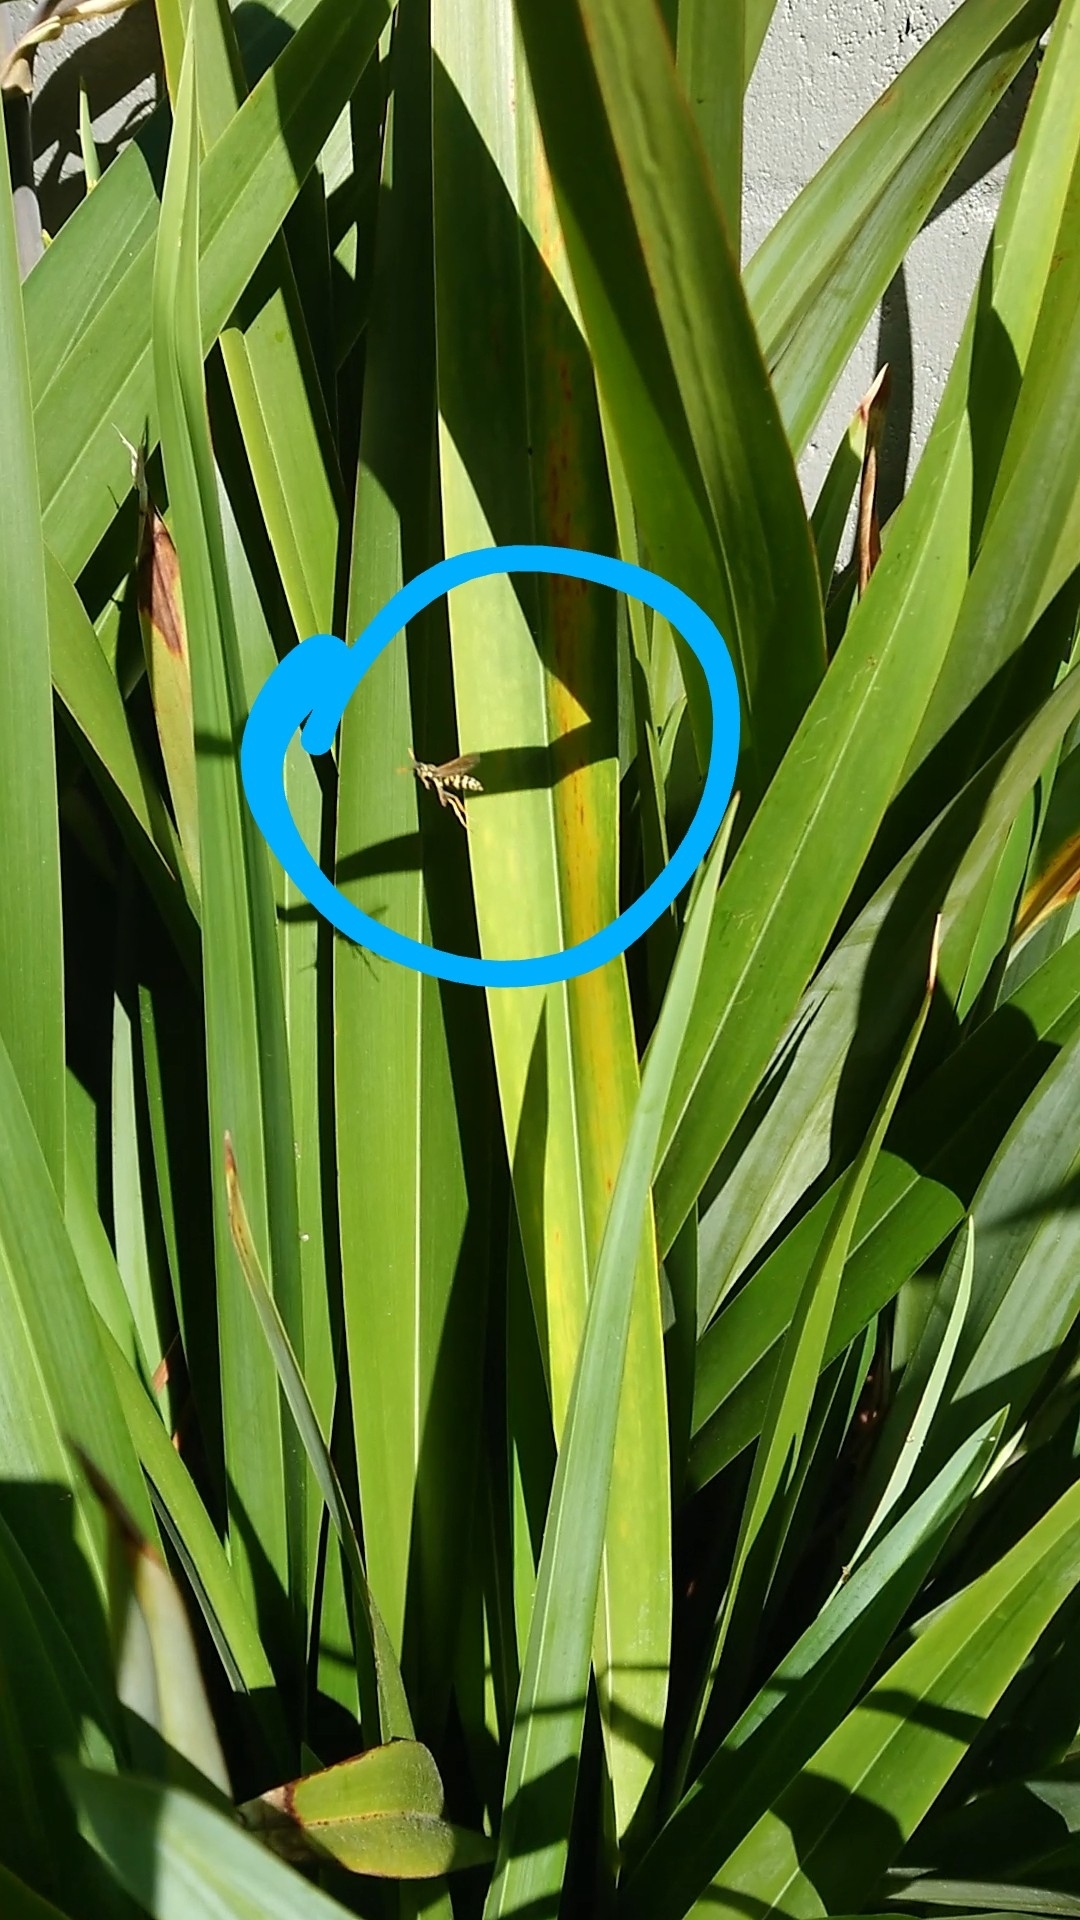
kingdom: Animalia
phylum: Arthropoda
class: Insecta
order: Hymenoptera
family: Eumenidae
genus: Polistes
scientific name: Polistes
